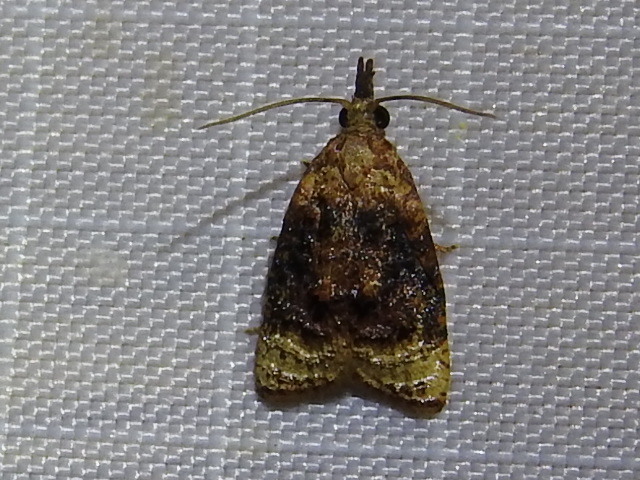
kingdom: Animalia
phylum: Arthropoda
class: Insecta
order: Lepidoptera
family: Tortricidae
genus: Platynota
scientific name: Platynota flavedana
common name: Black-shaded platynota moth
